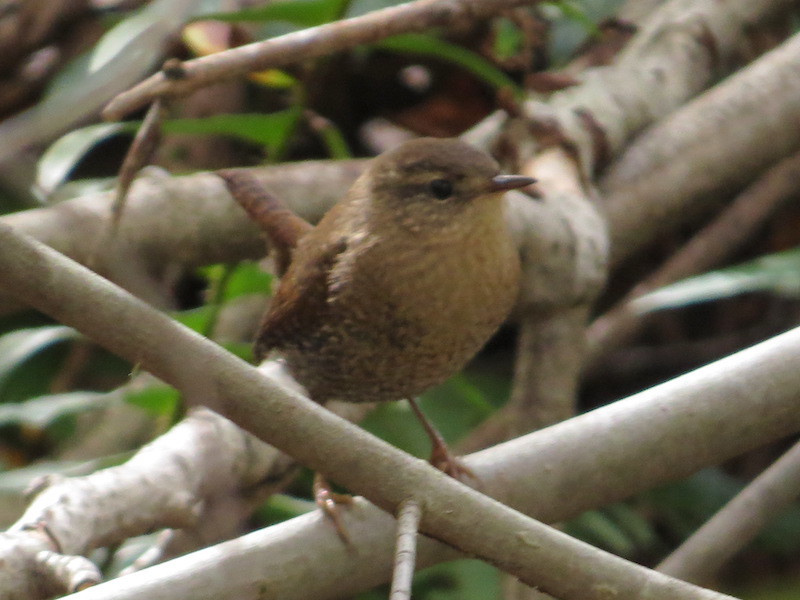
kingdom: Animalia
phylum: Chordata
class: Aves
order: Passeriformes
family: Troglodytidae
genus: Troglodytes
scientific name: Troglodytes hiemalis
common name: Winter wren
